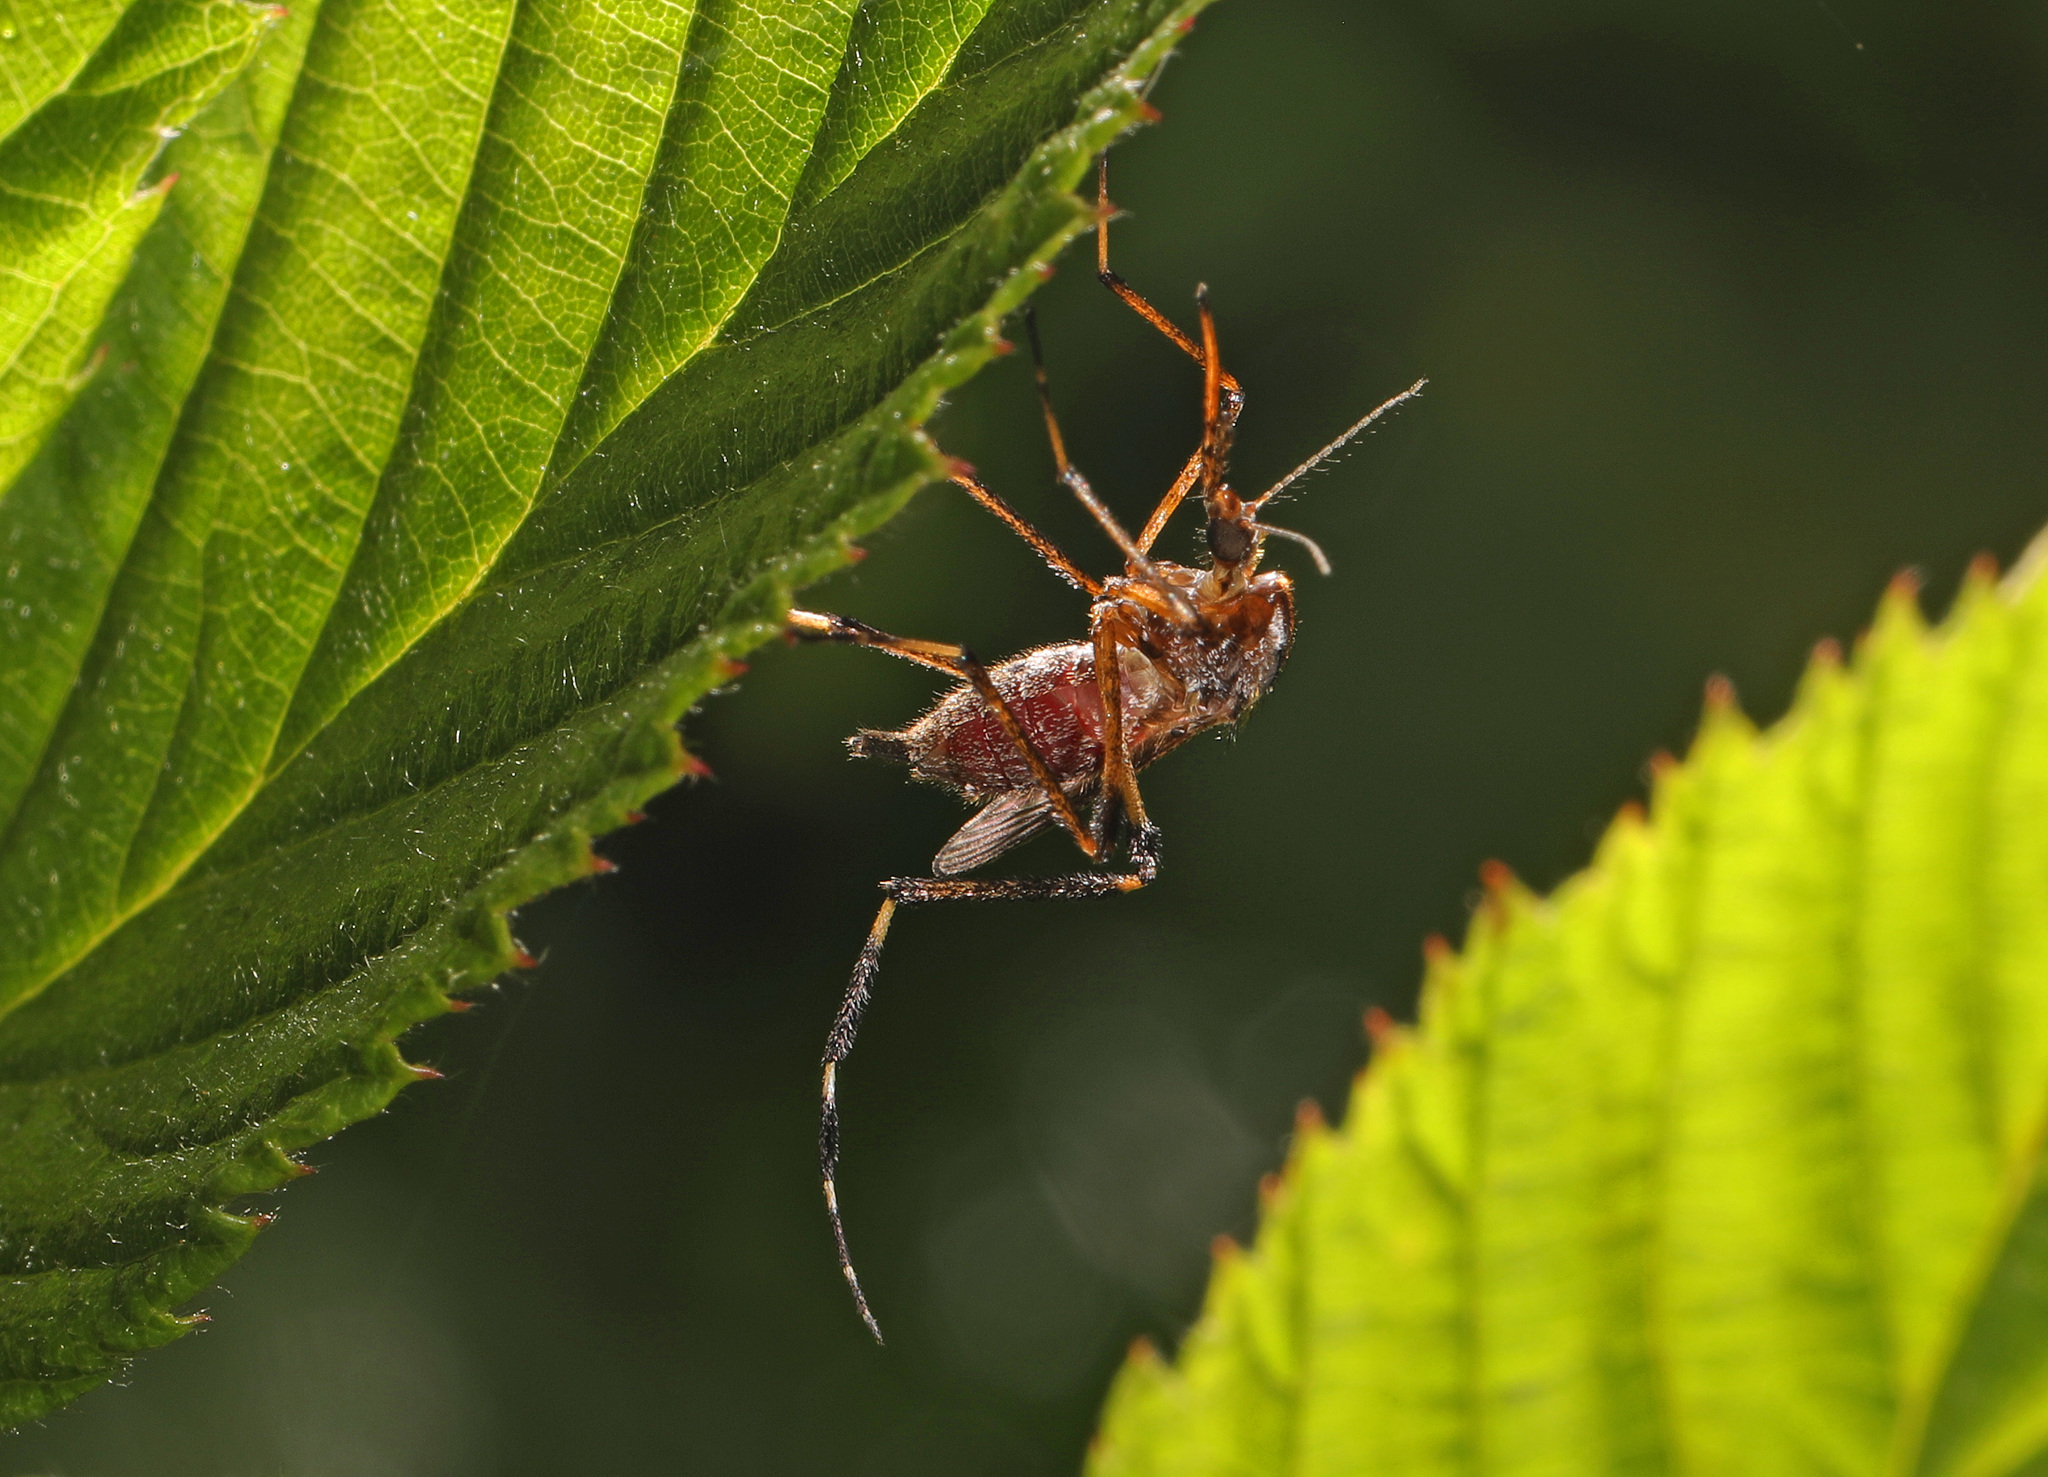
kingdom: Animalia
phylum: Arthropoda
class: Insecta
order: Diptera
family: Culicidae
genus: Psorophora
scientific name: Psorophora ciliata
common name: Gallinipper
